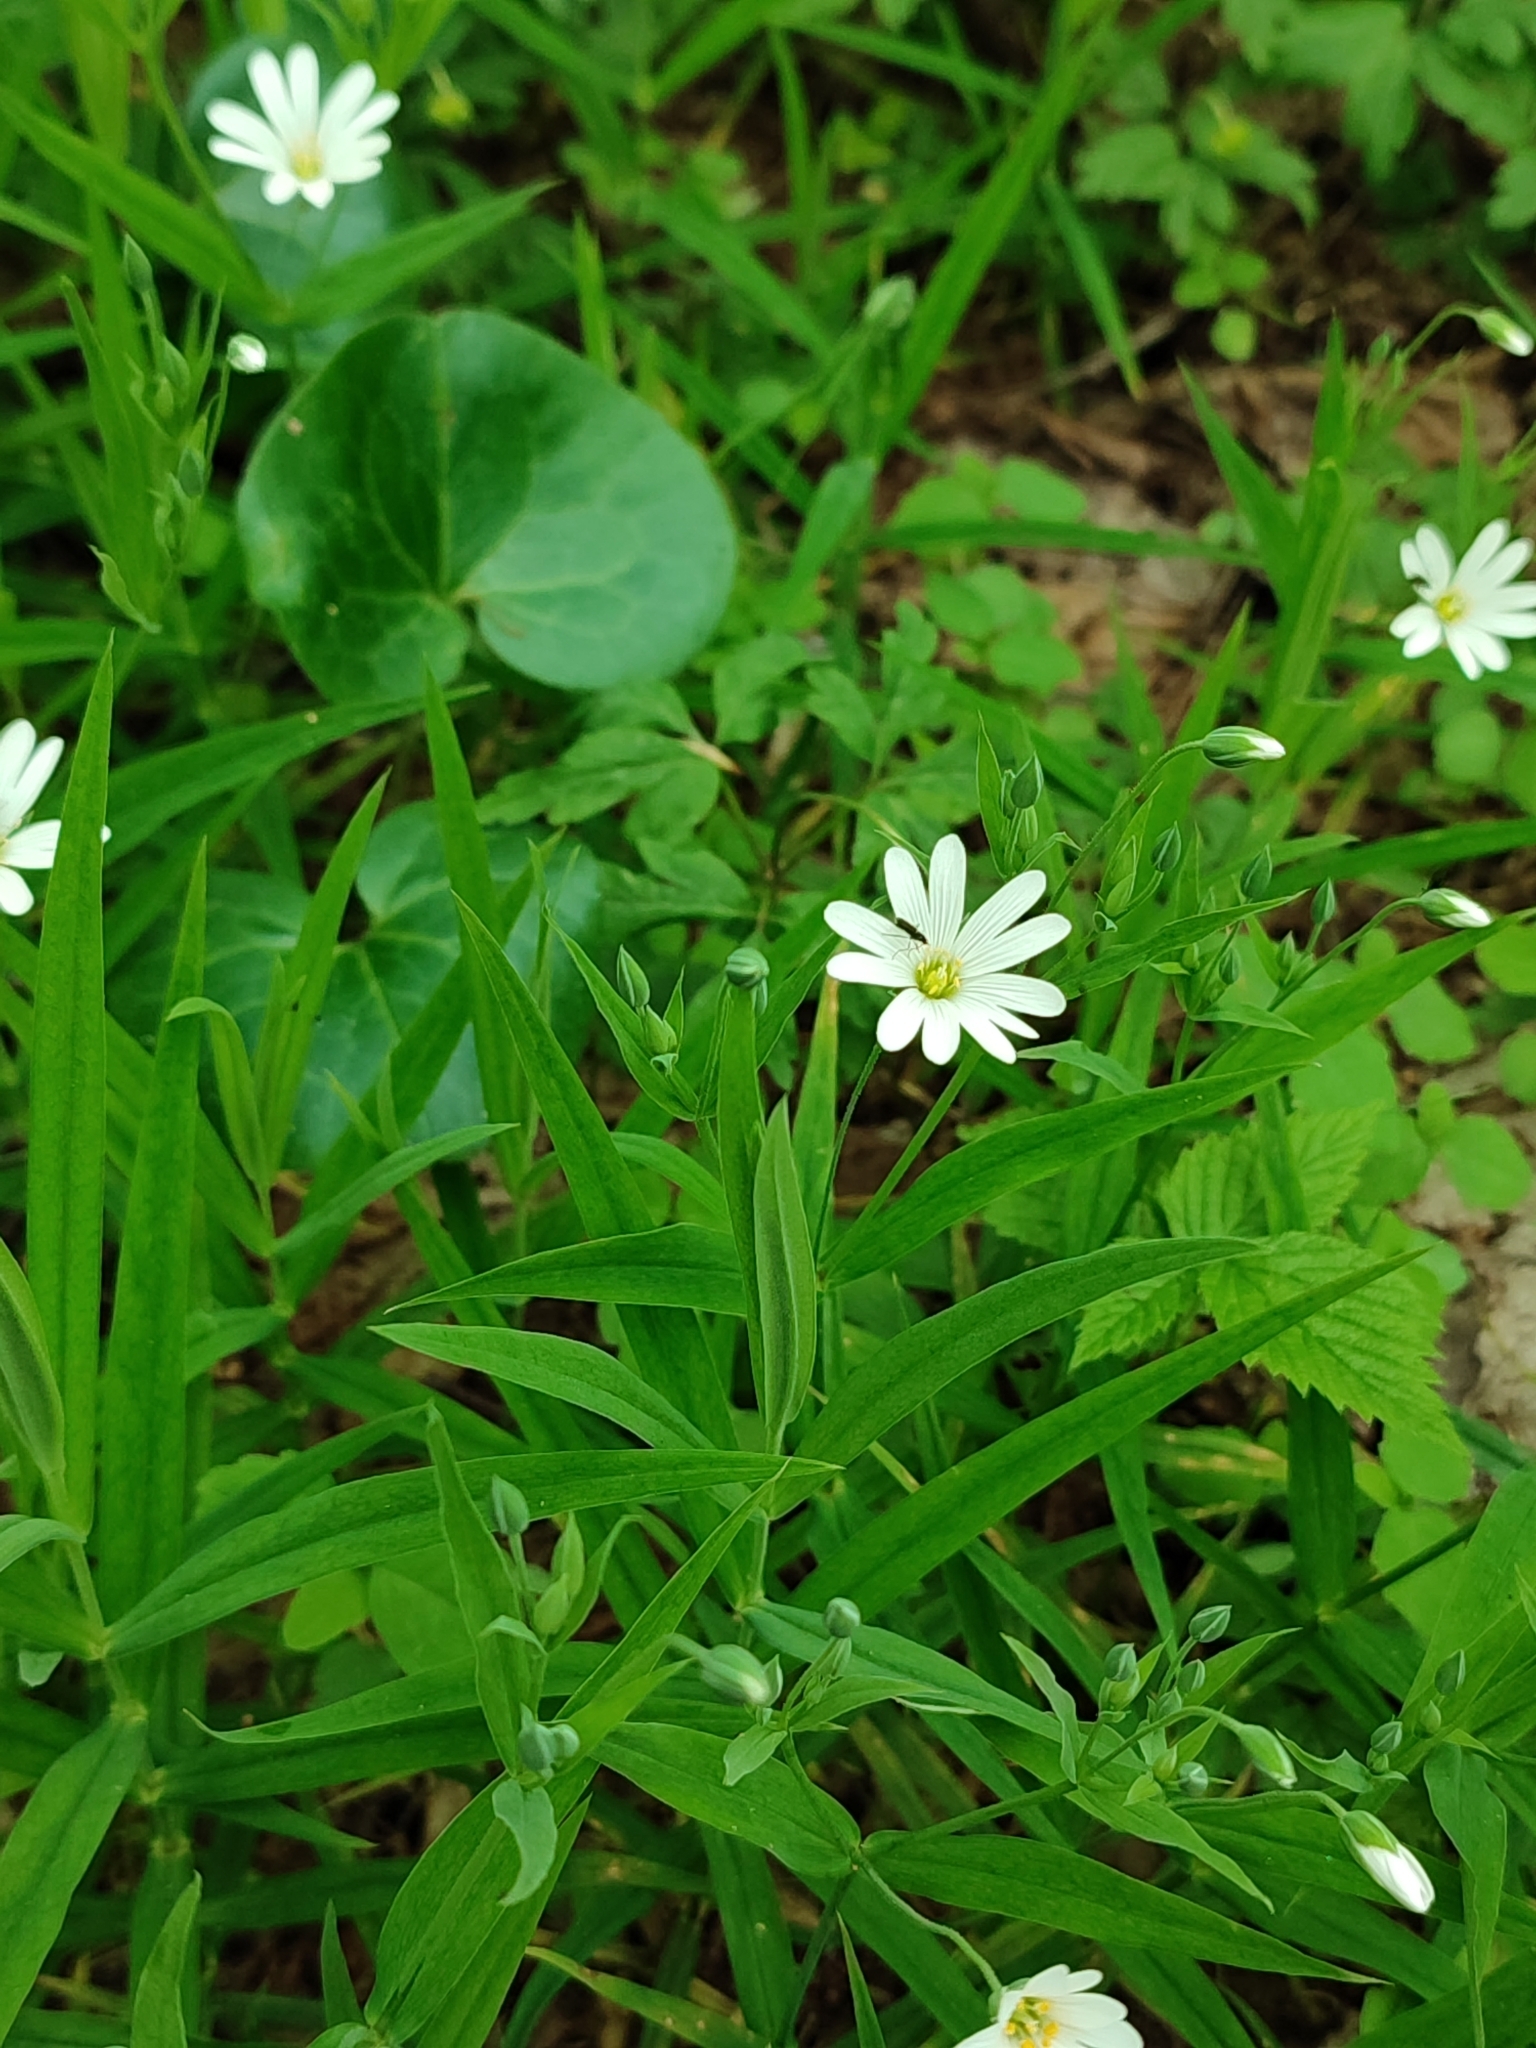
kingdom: Plantae
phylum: Tracheophyta
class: Magnoliopsida
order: Caryophyllales
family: Caryophyllaceae
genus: Rabelera
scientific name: Rabelera holostea
